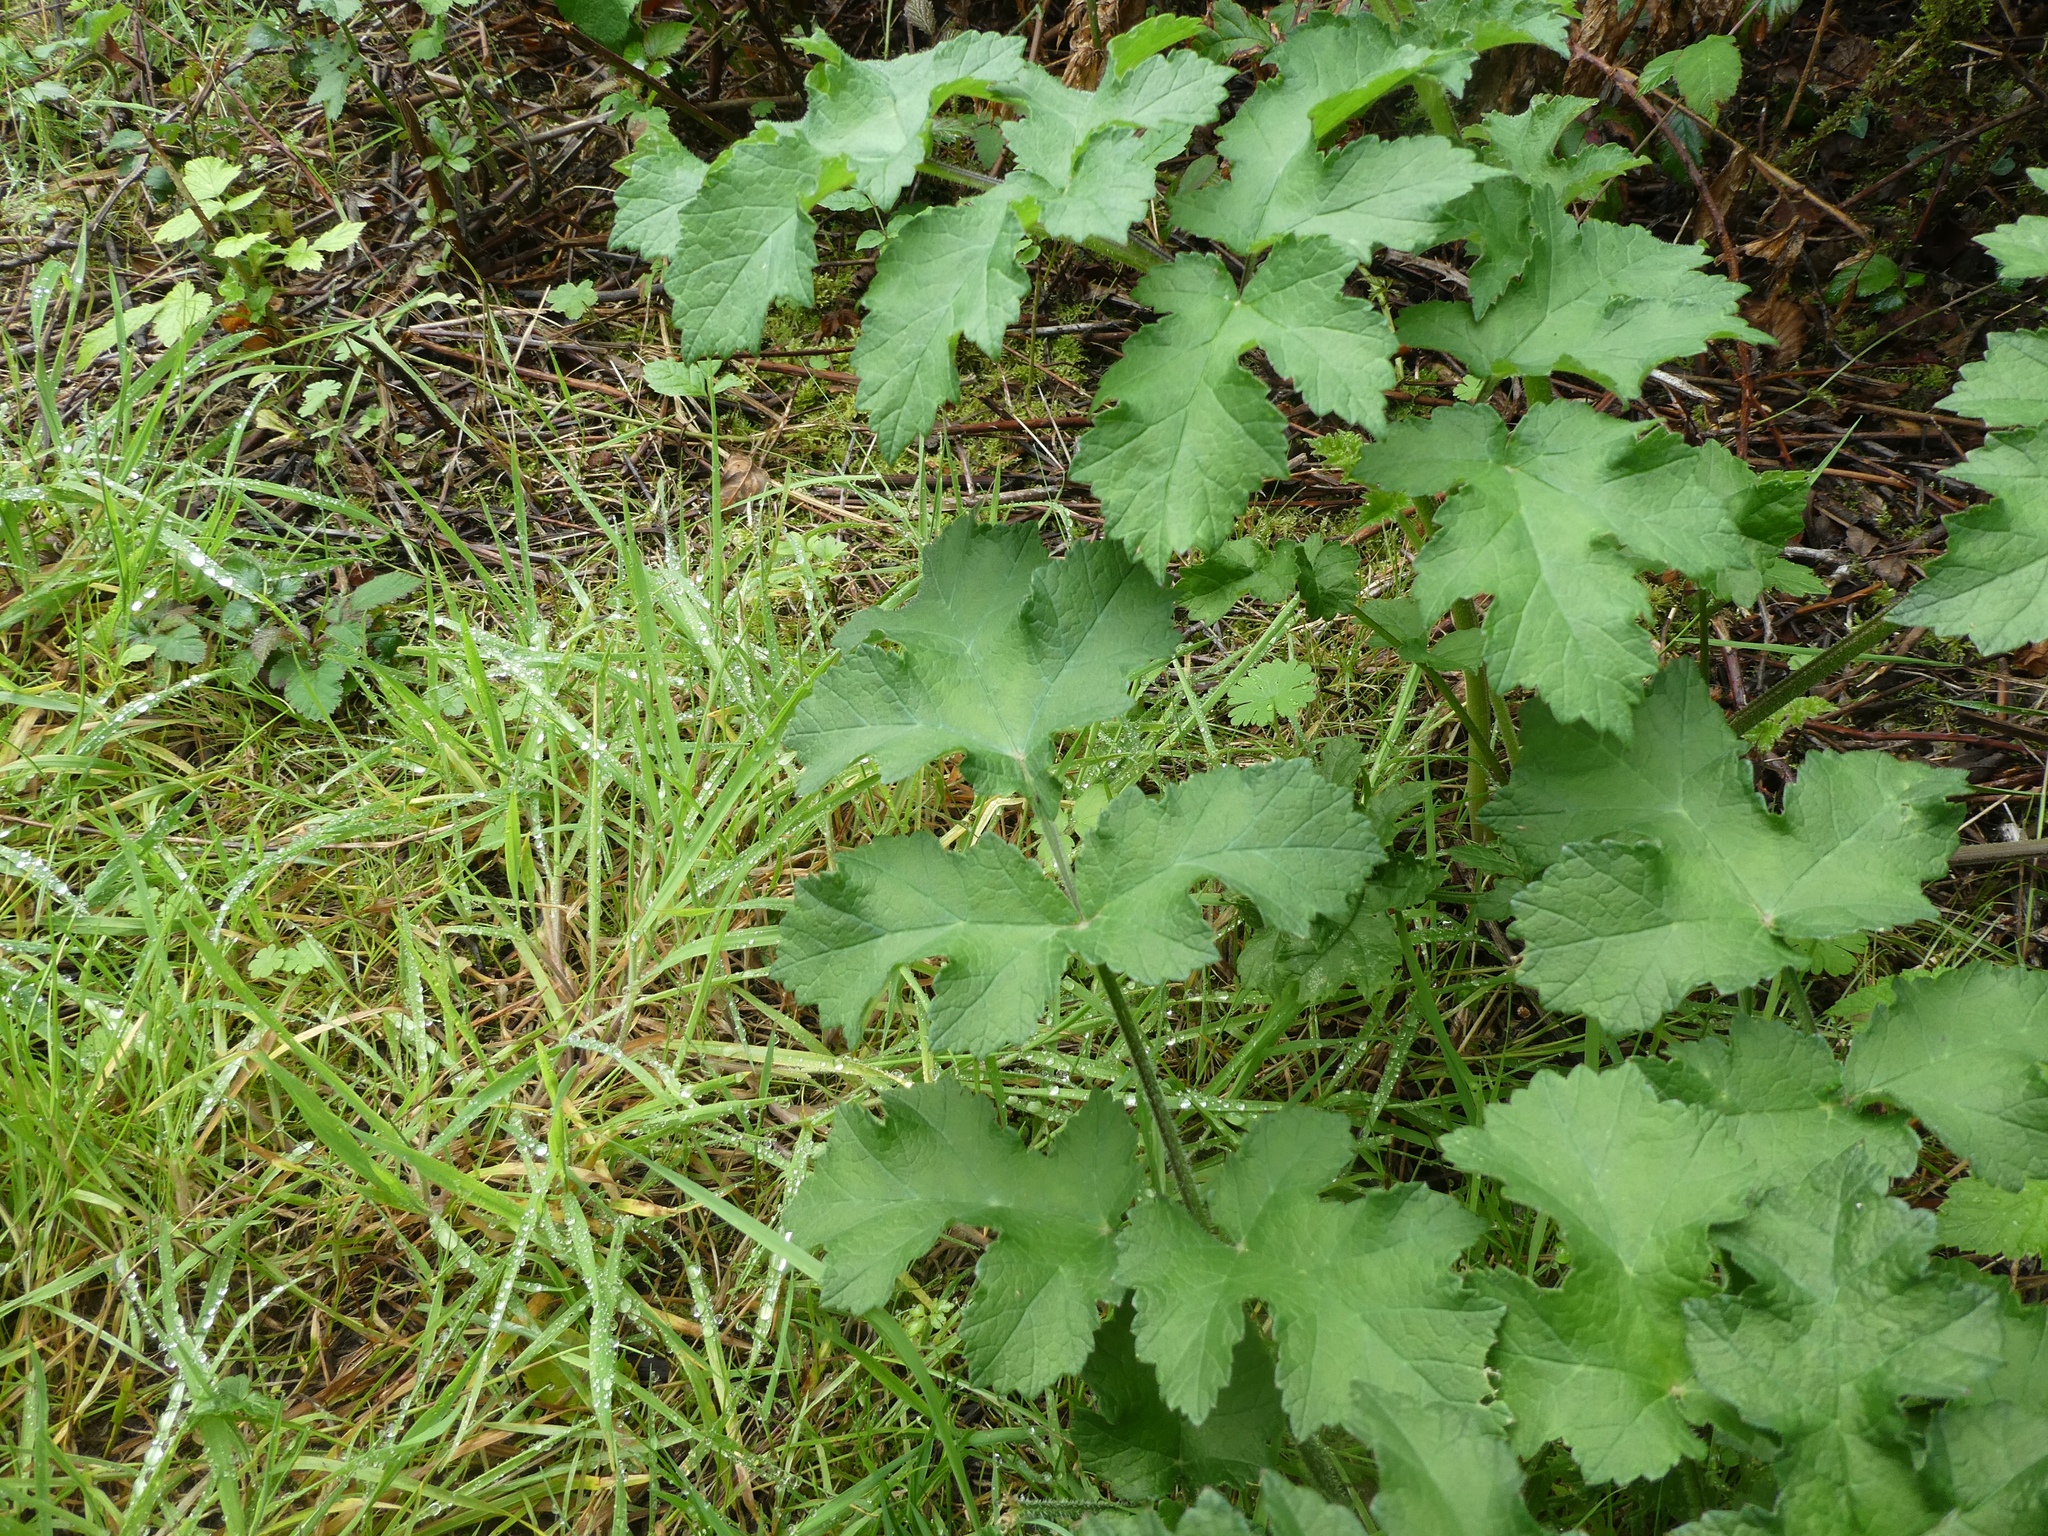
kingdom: Plantae
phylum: Tracheophyta
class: Magnoliopsida
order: Apiales
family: Apiaceae
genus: Heracleum
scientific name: Heracleum sphondylium
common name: Hogweed
